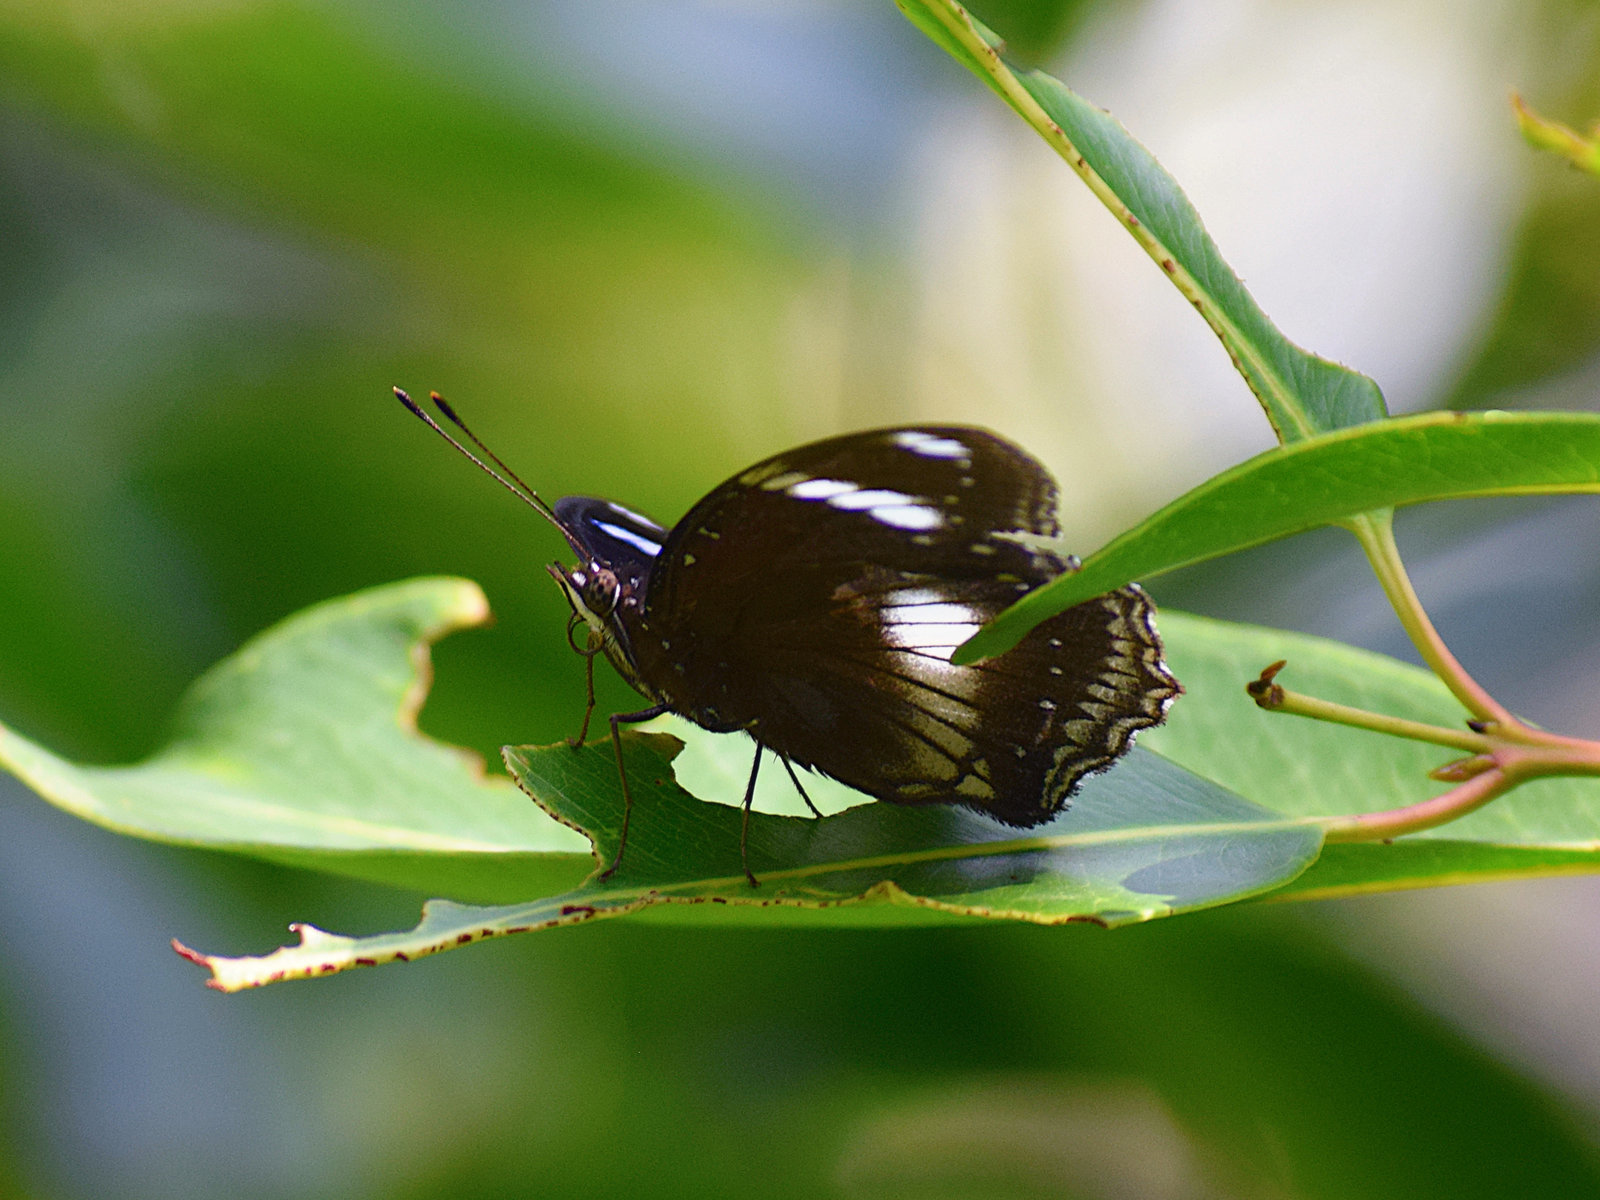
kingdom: Animalia
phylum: Arthropoda
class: Insecta
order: Lepidoptera
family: Nymphalidae
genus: Hypolimnas
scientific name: Hypolimnas bolina
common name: Great eggfly
